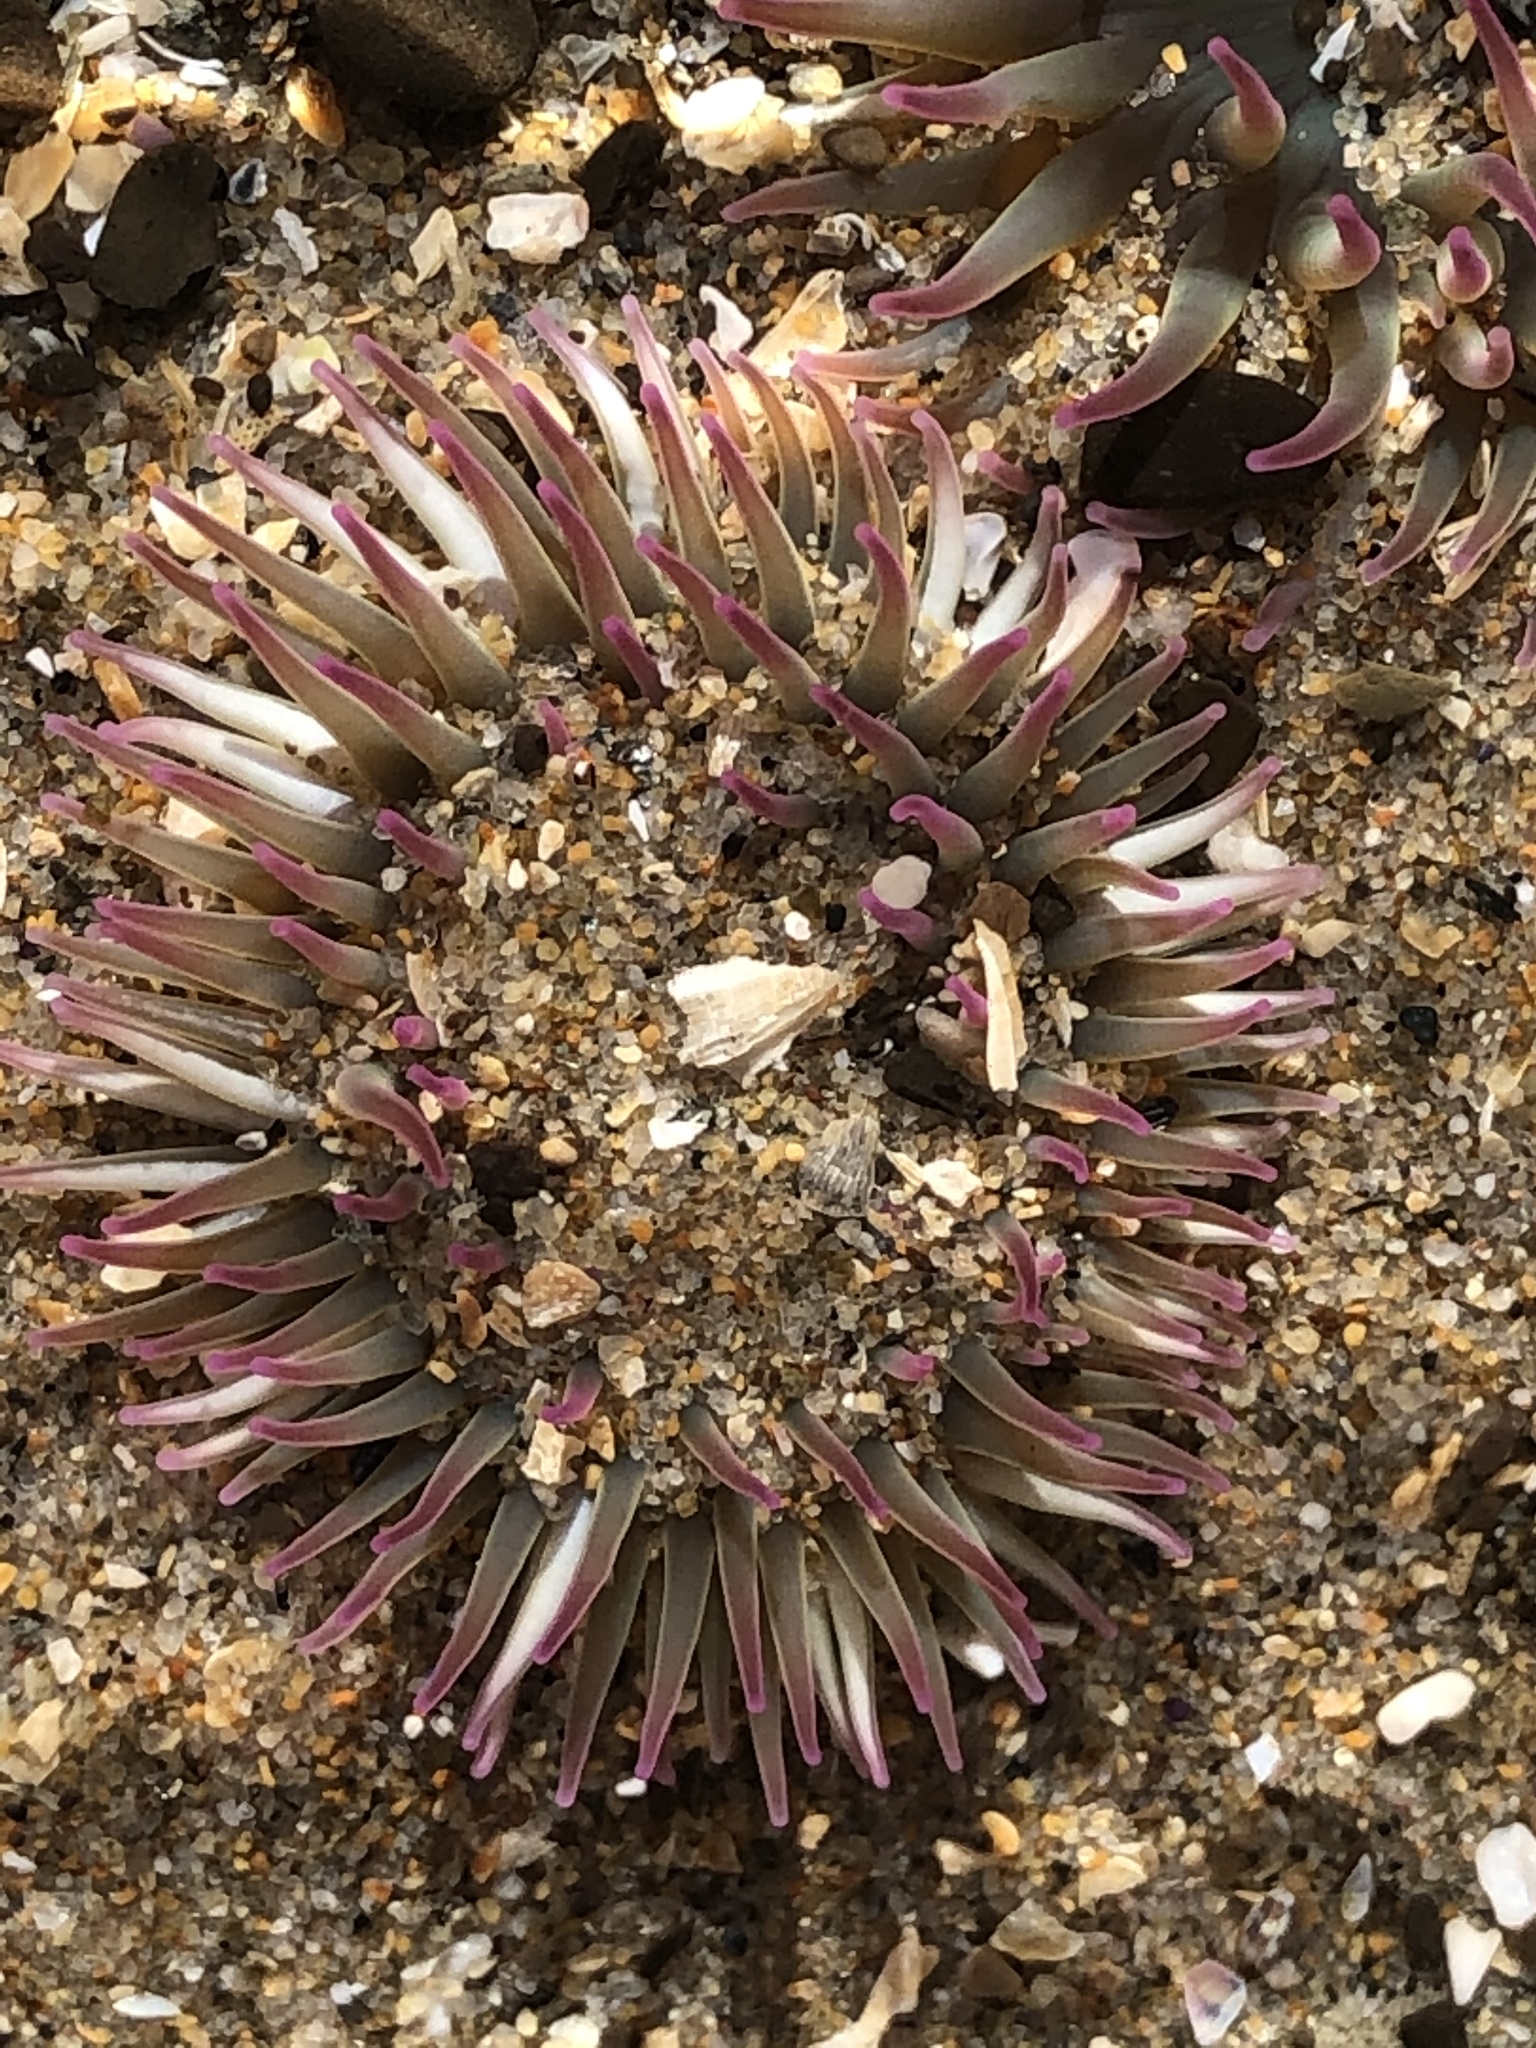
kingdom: Animalia
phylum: Cnidaria
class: Anthozoa
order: Actiniaria
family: Actiniidae
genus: Anthopleura
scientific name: Anthopleura elegantissima
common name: Clonal anemone
